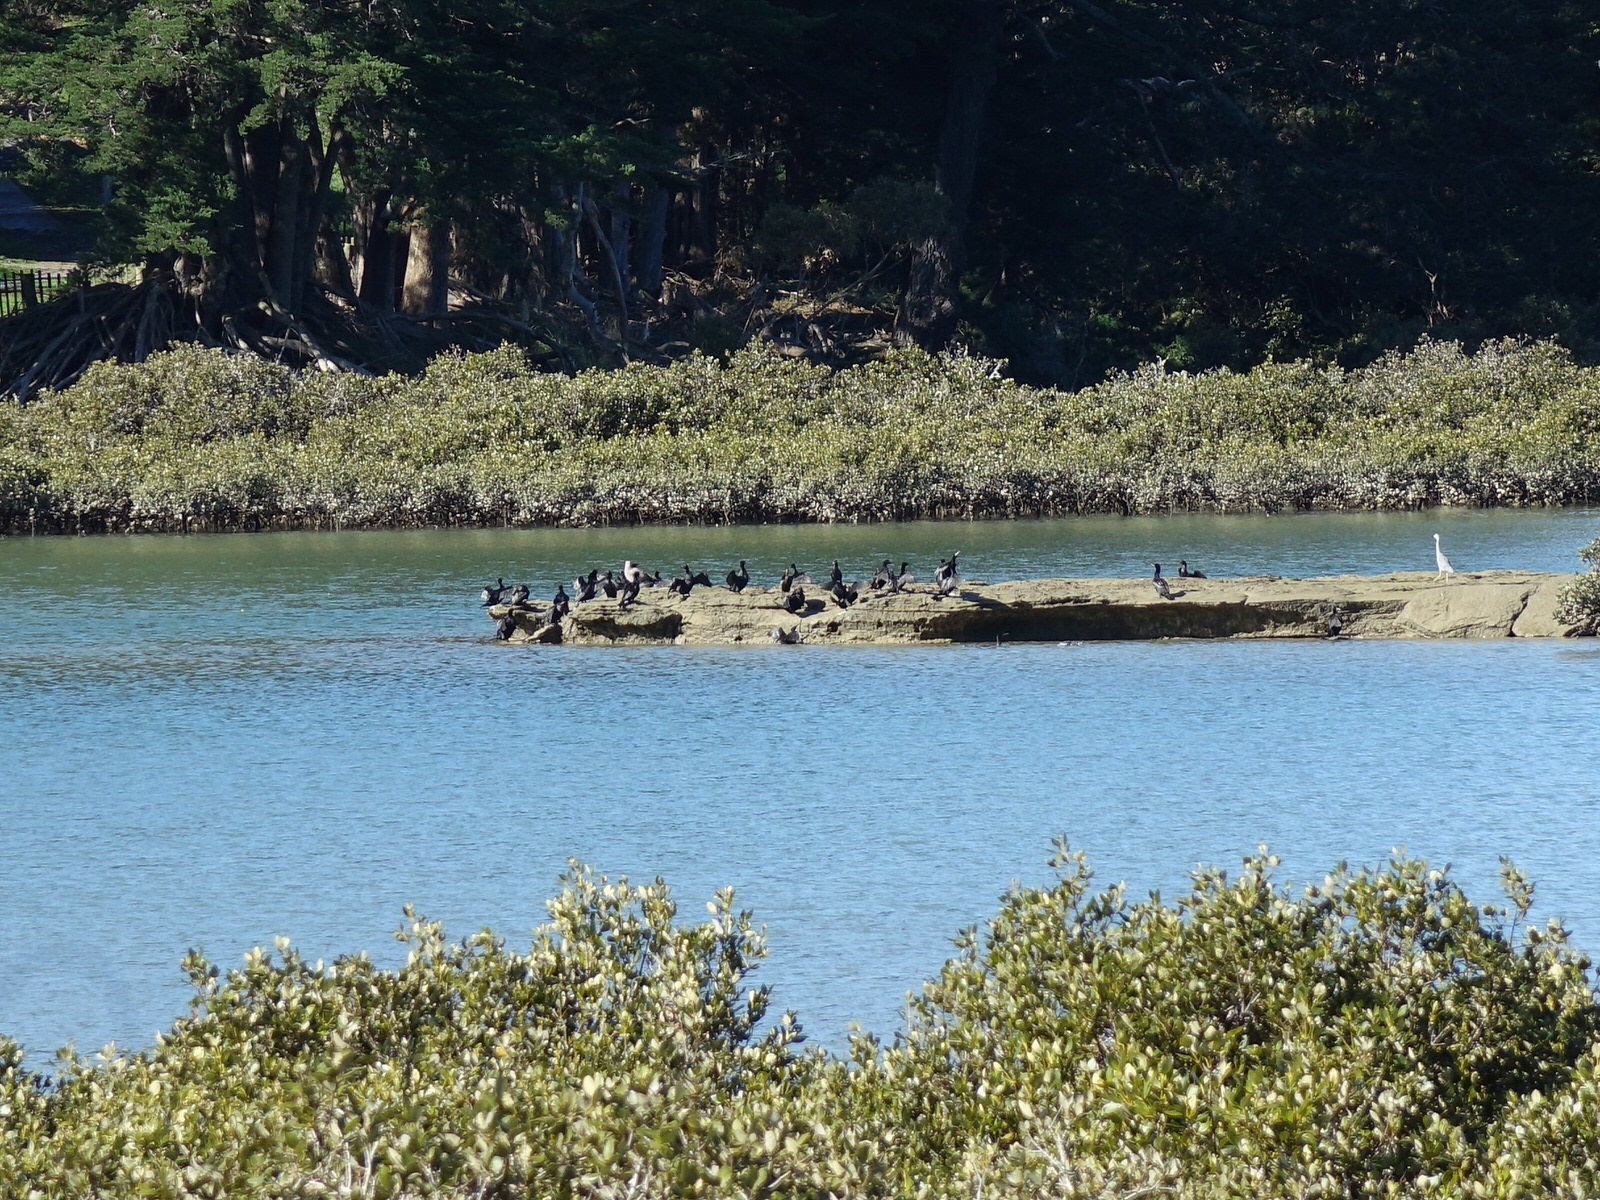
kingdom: Animalia
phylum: Chordata
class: Aves
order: Suliformes
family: Phalacrocoracidae
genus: Phalacrocorax
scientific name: Phalacrocorax sulcirostris
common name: Little black cormorant
